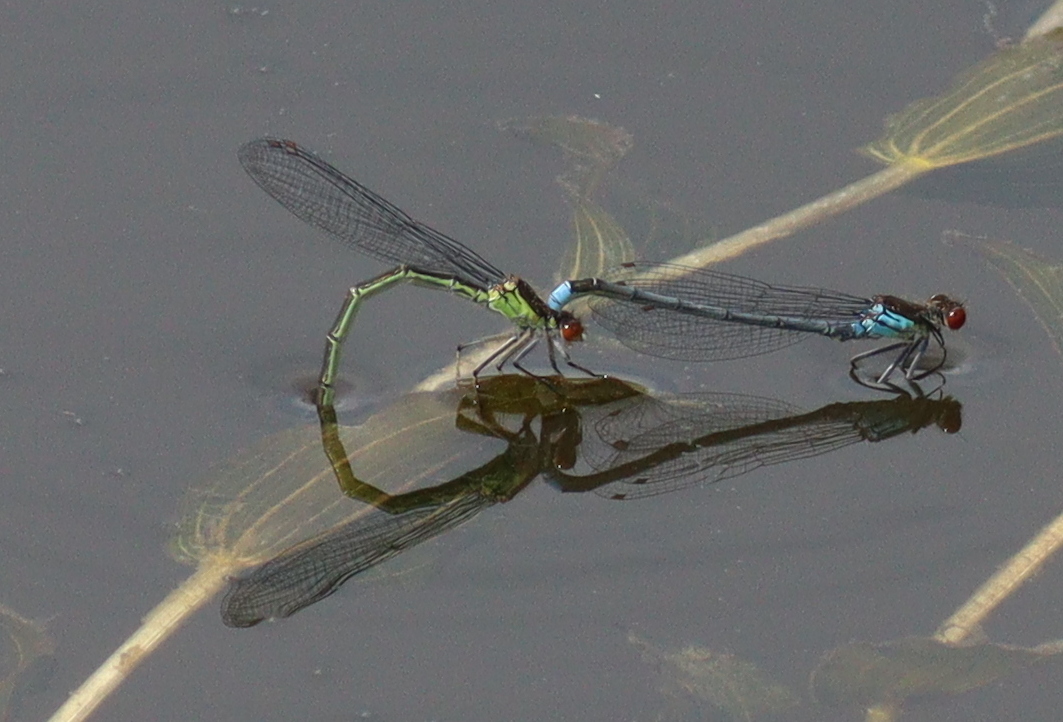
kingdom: Animalia
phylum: Arthropoda
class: Insecta
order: Odonata
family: Coenagrionidae
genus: Erythromma
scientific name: Erythromma najas
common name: Red-eyed damselfly
